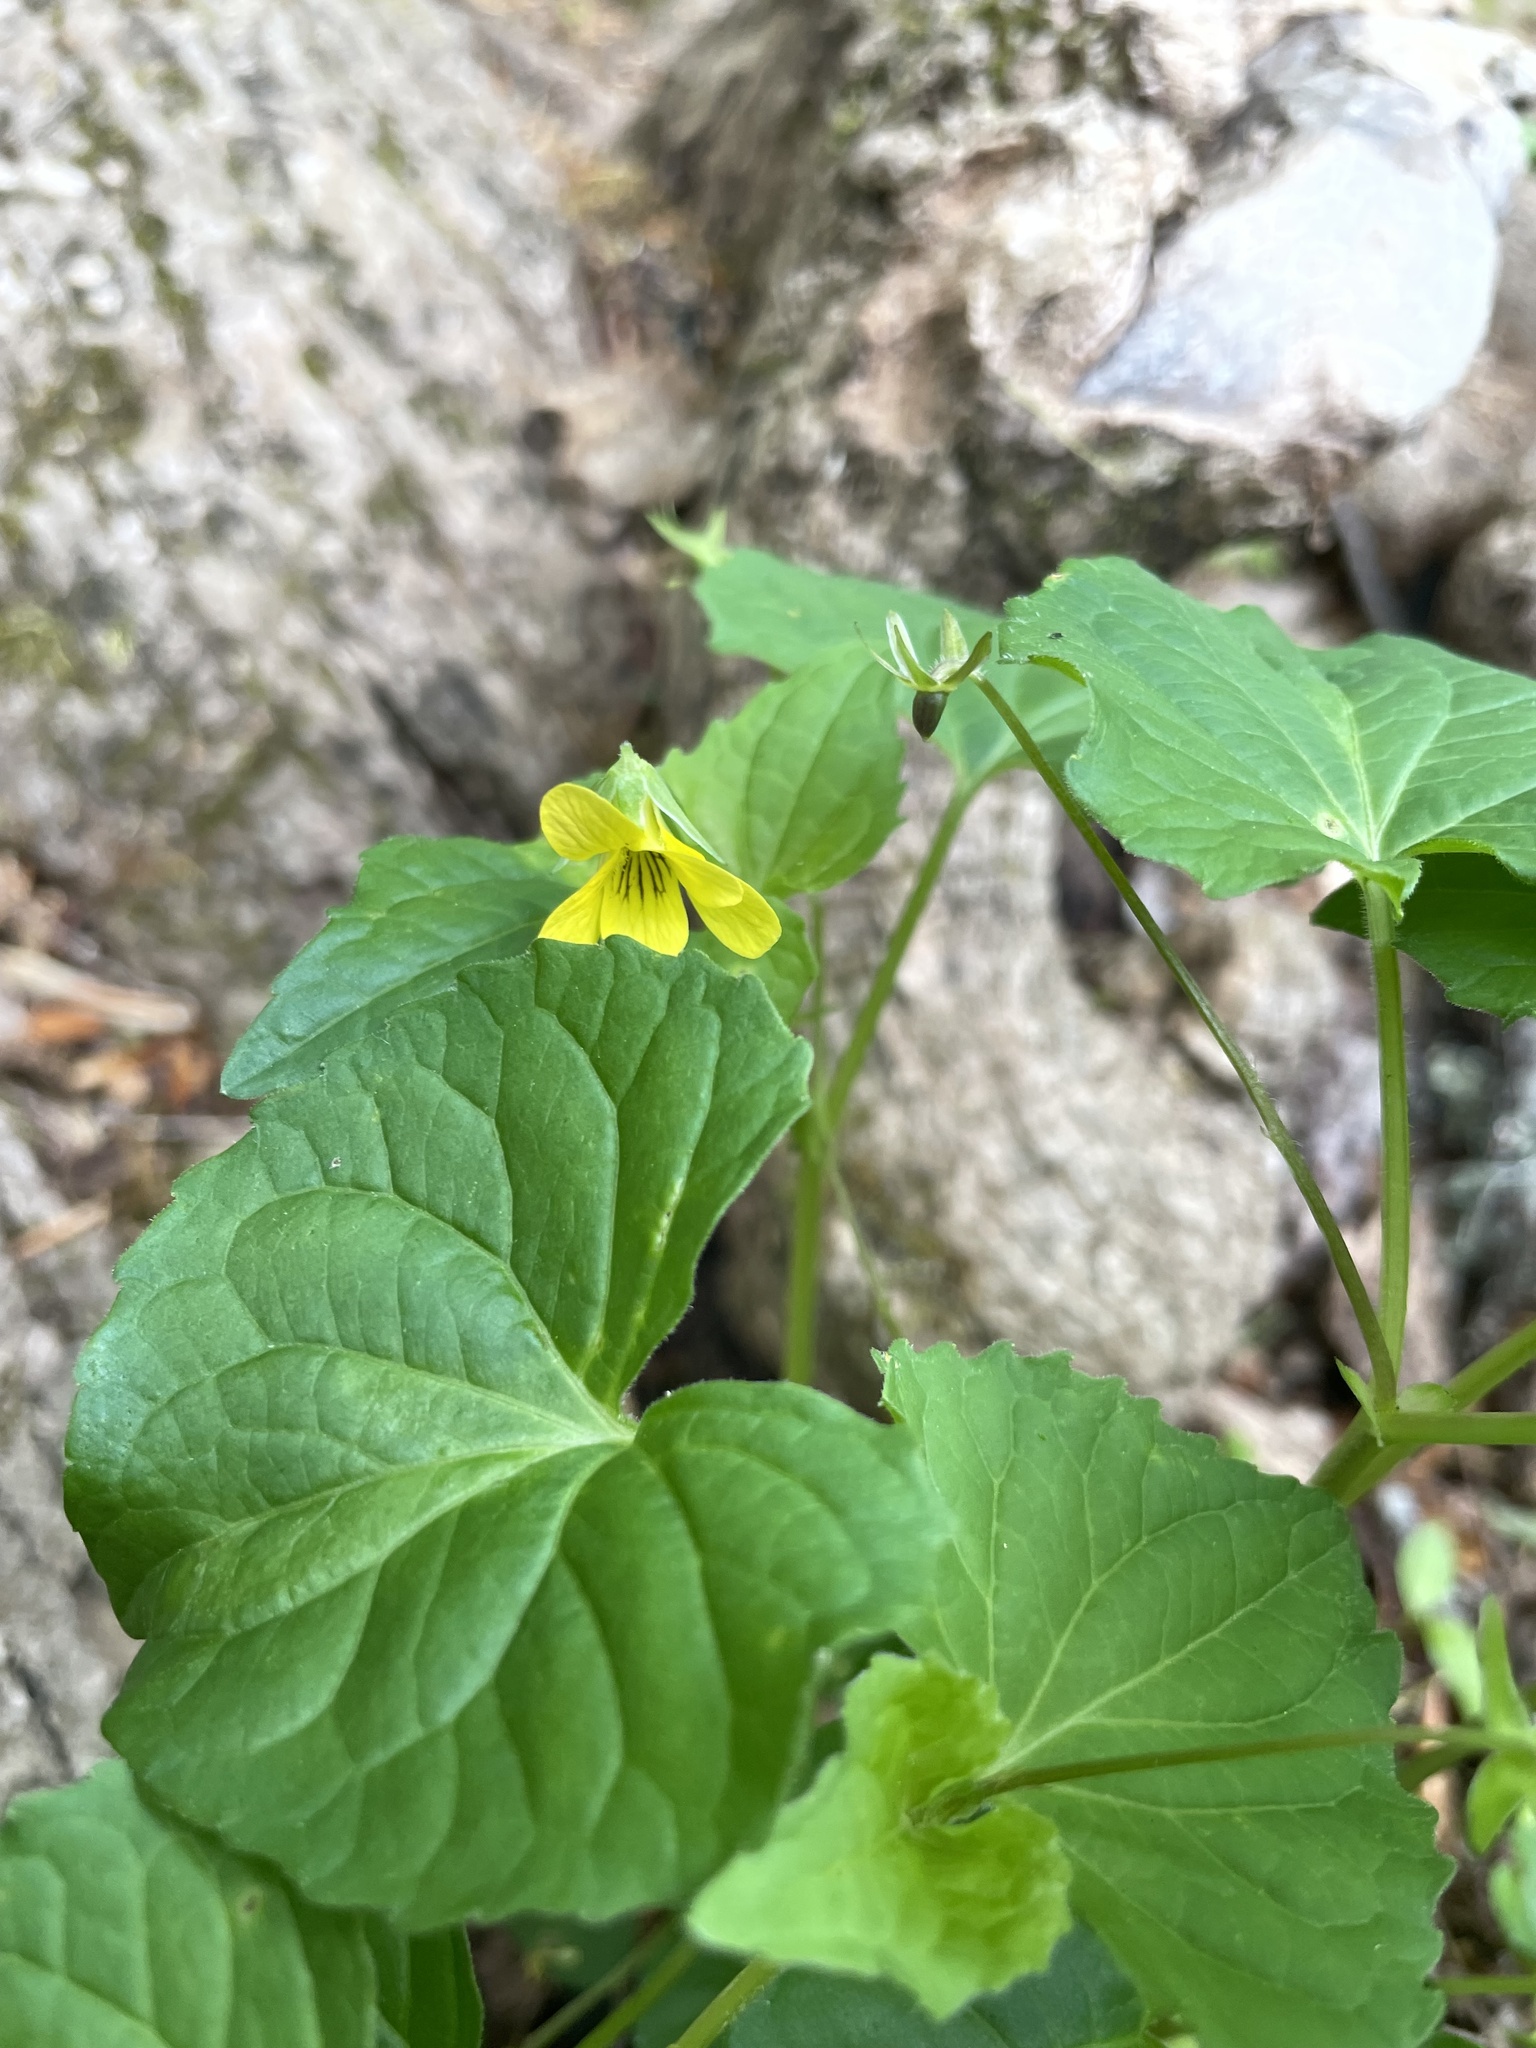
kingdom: Plantae
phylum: Tracheophyta
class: Magnoliopsida
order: Malpighiales
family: Violaceae
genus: Viola
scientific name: Viola eriocarpa
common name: Smooth yellow violet
